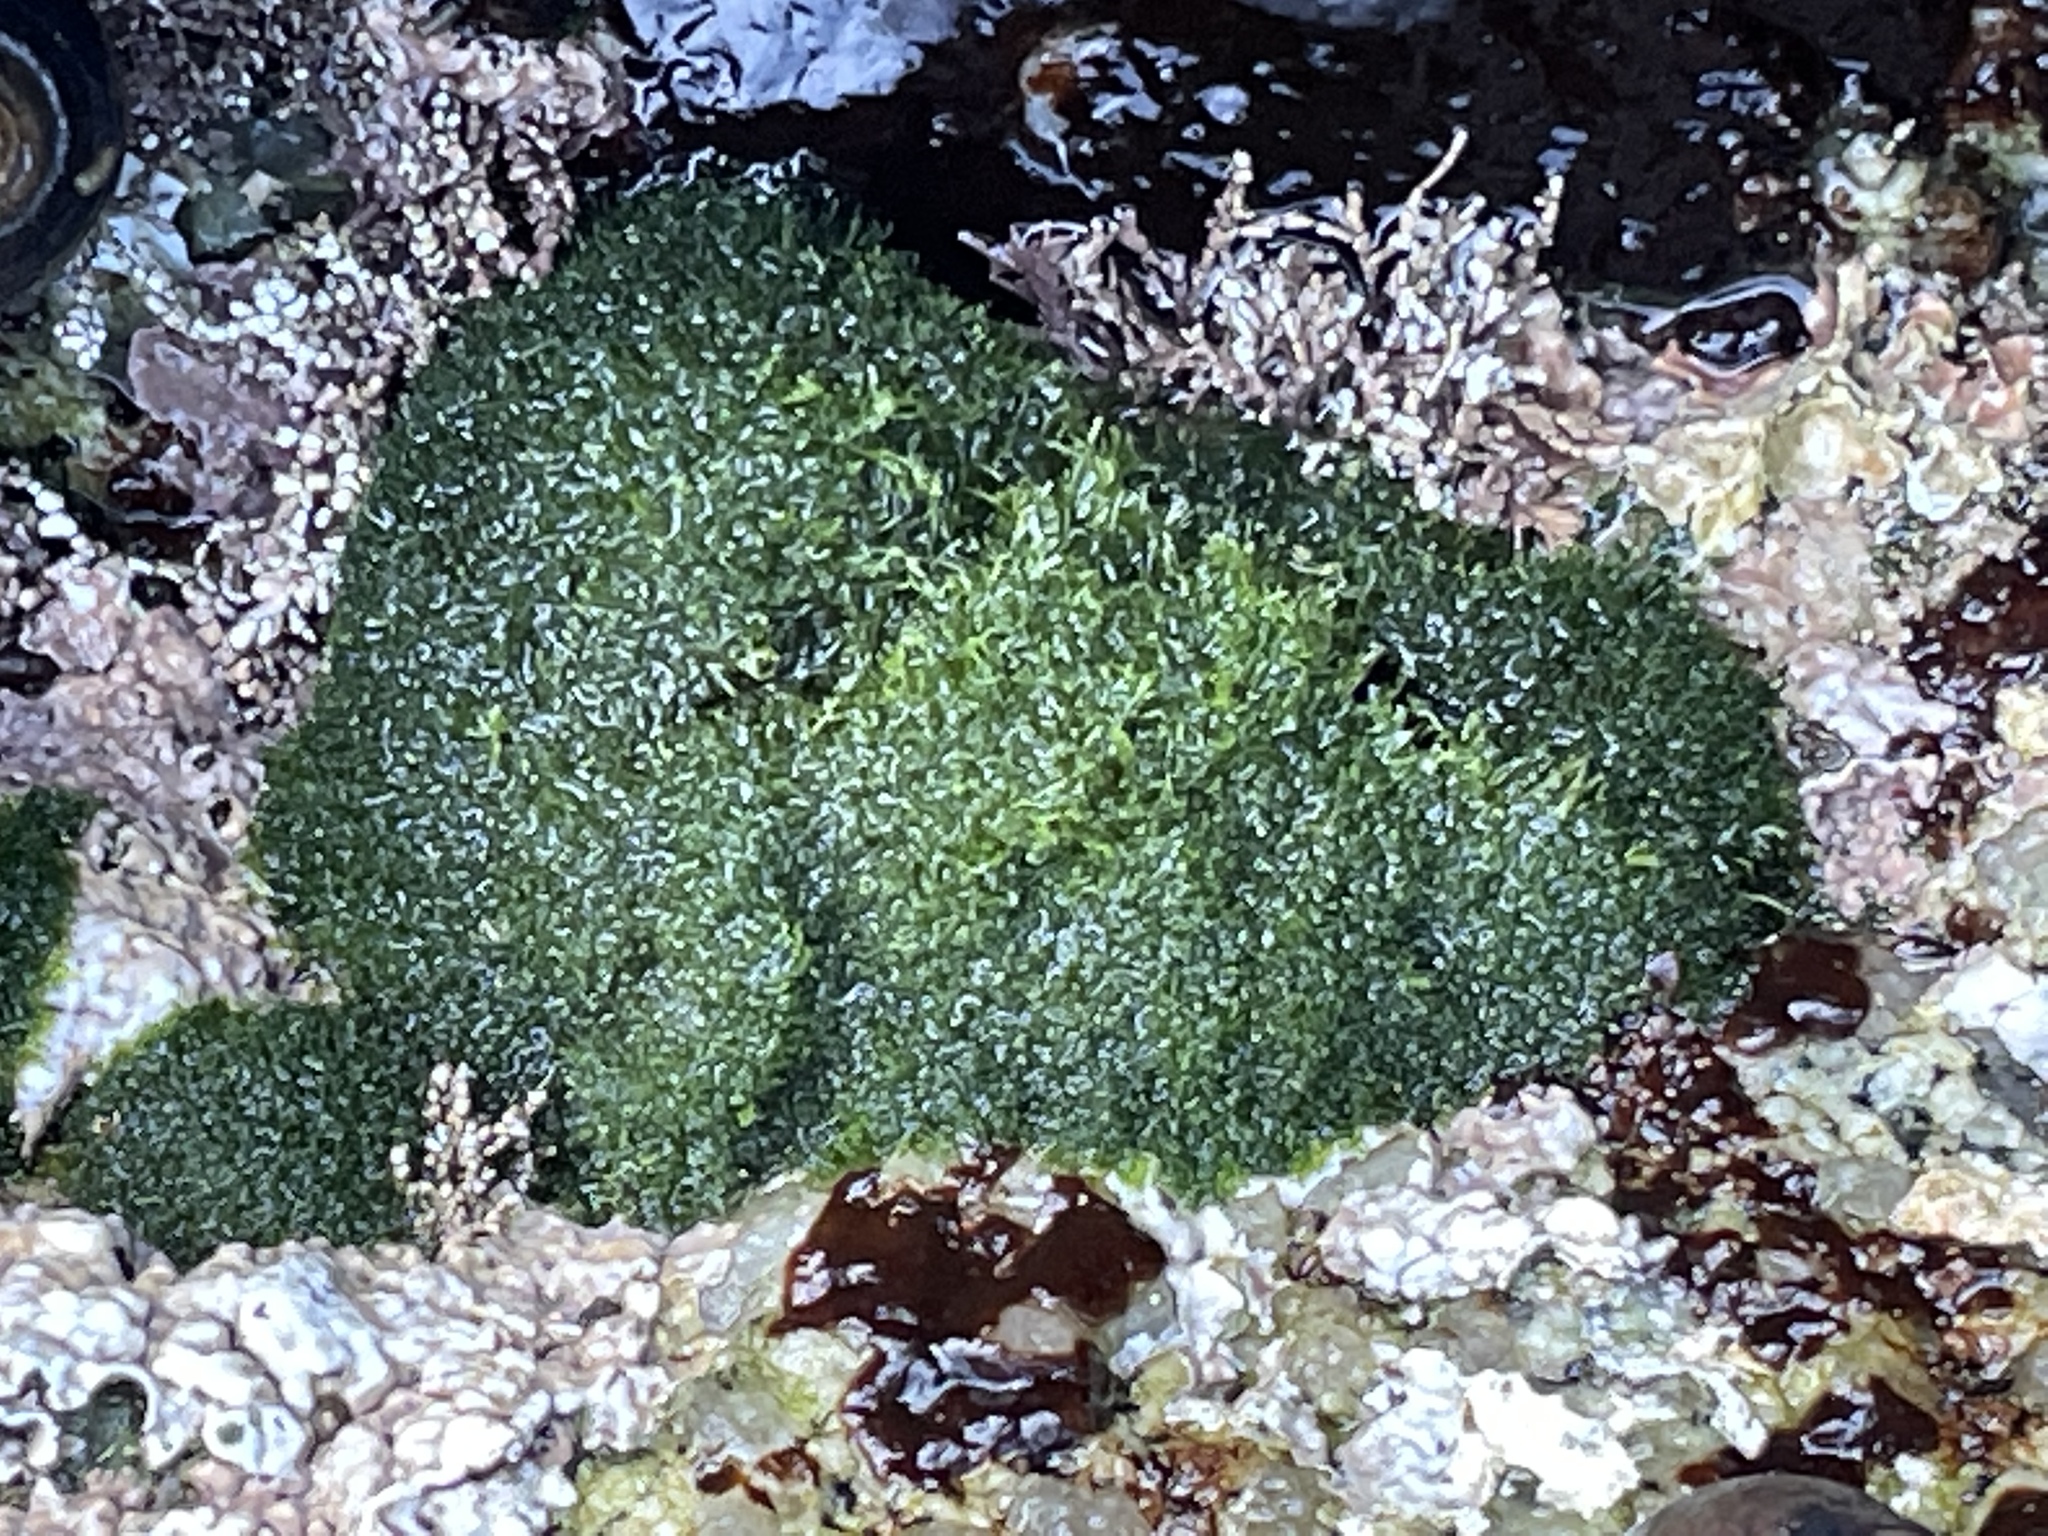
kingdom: Plantae
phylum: Chlorophyta
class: Ulvophyceae
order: Cladophorales
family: Cladophoraceae
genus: Cladophora
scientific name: Cladophora columbiana
